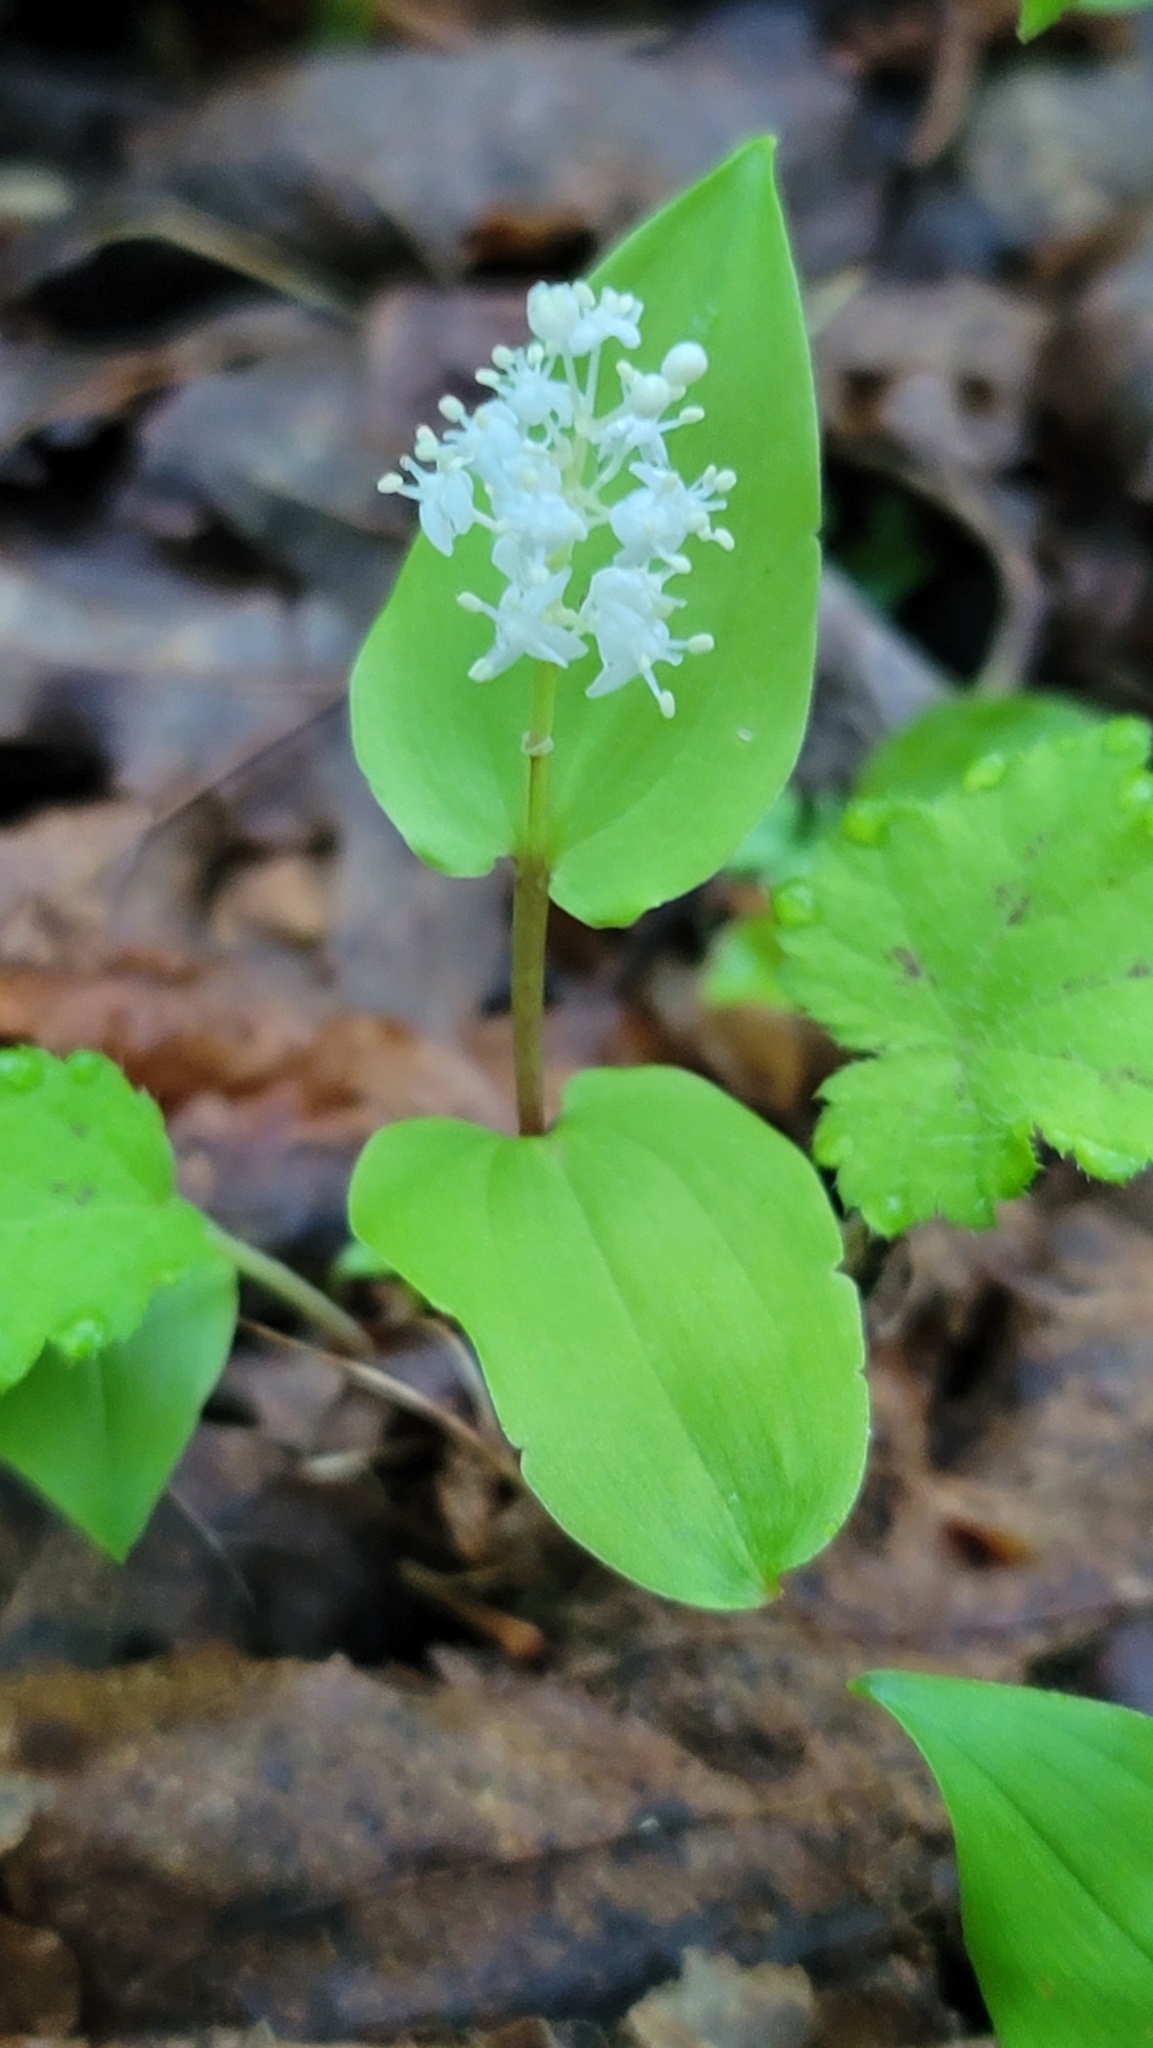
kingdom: Plantae
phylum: Tracheophyta
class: Liliopsida
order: Asparagales
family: Asparagaceae
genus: Maianthemum
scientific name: Maianthemum canadense
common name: False lily-of-the-valley
